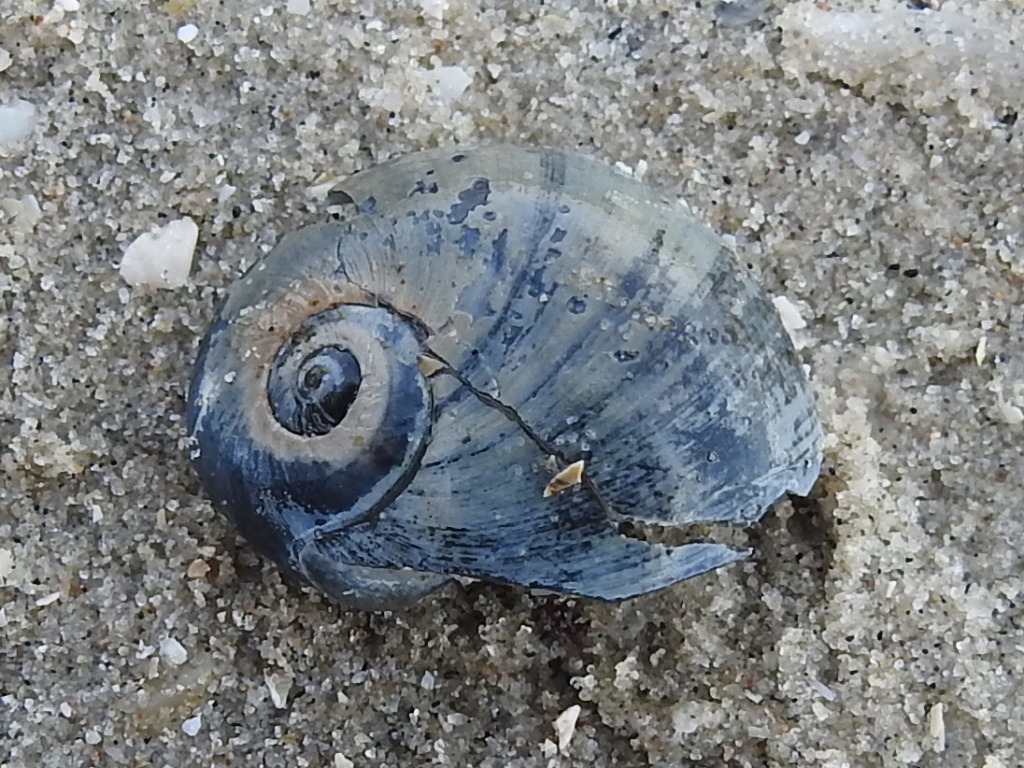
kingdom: Animalia
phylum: Mollusca
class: Gastropoda
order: Littorinimorpha
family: Naticidae
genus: Neverita
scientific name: Neverita duplicata
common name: Lobed moonsnail
